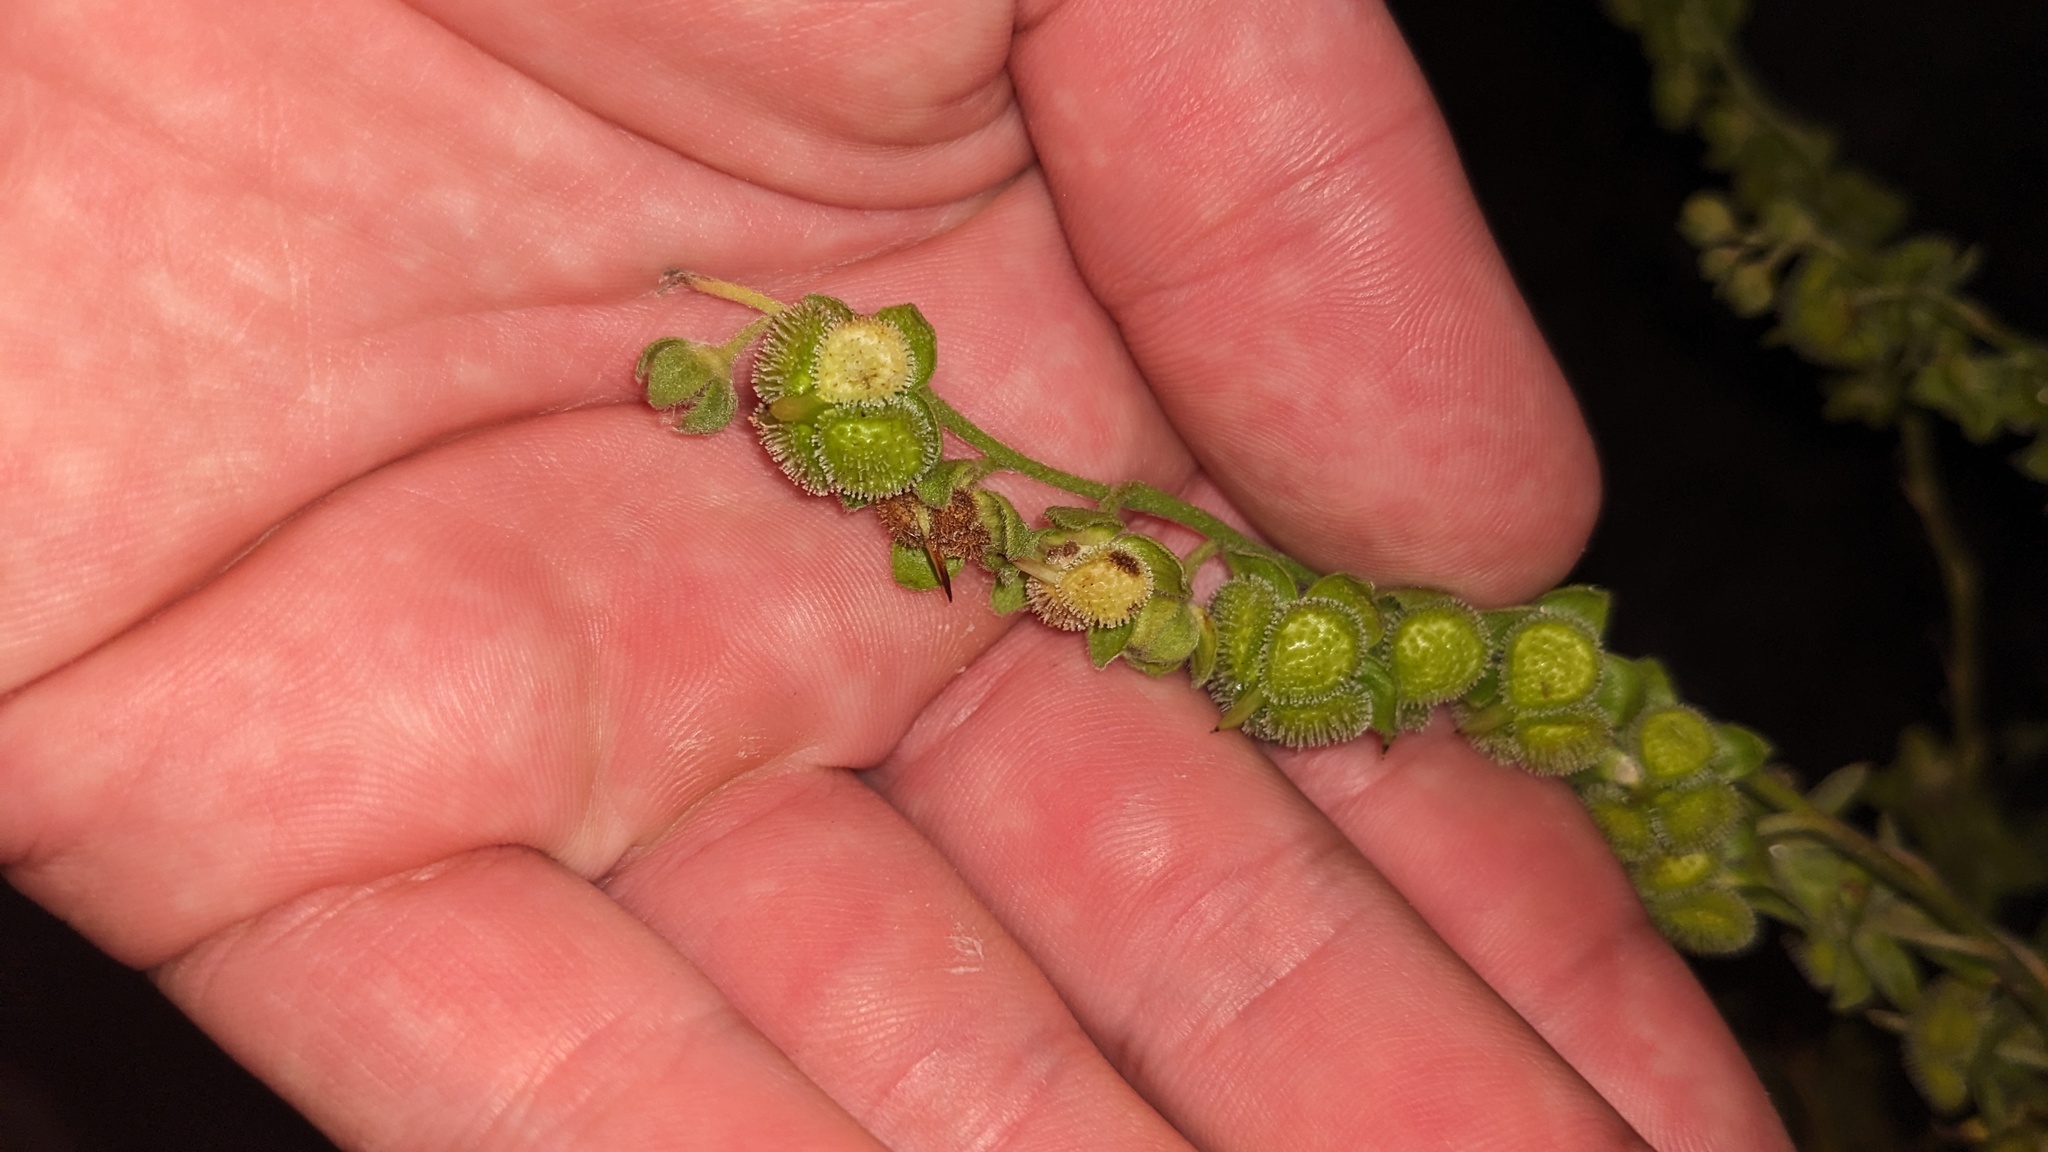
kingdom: Plantae
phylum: Tracheophyta
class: Magnoliopsida
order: Boraginales
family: Boraginaceae
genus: Cynoglossum
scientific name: Cynoglossum officinale
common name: Hound's-tongue
